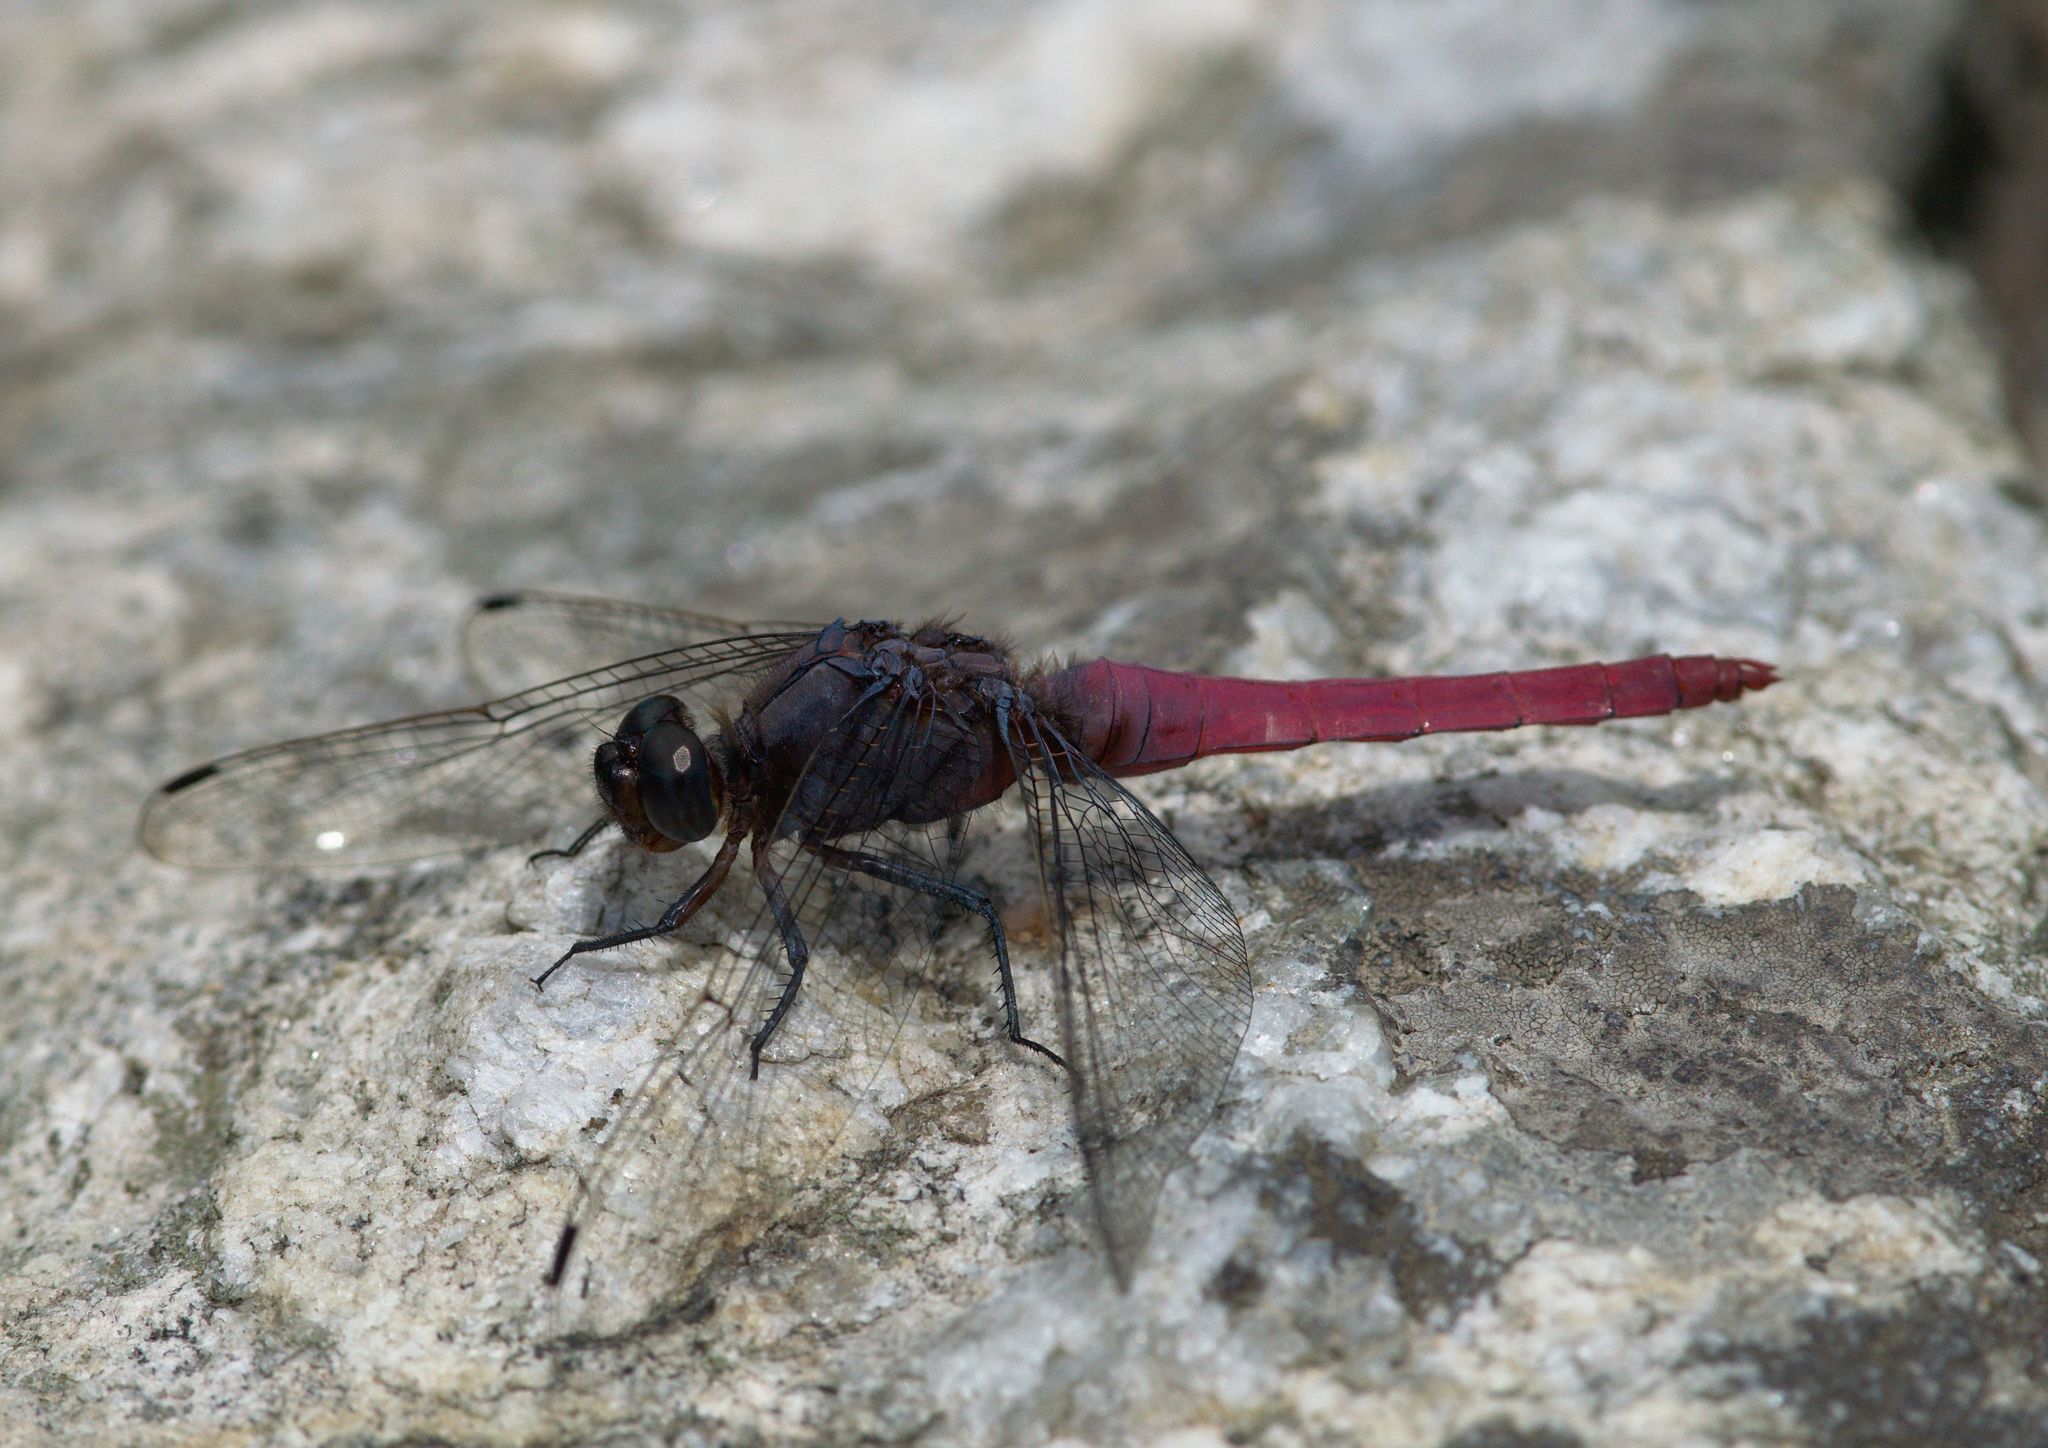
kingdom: Animalia
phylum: Arthropoda
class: Insecta
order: Odonata
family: Libellulidae
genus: Orthetrum
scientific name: Orthetrum pruinosum
